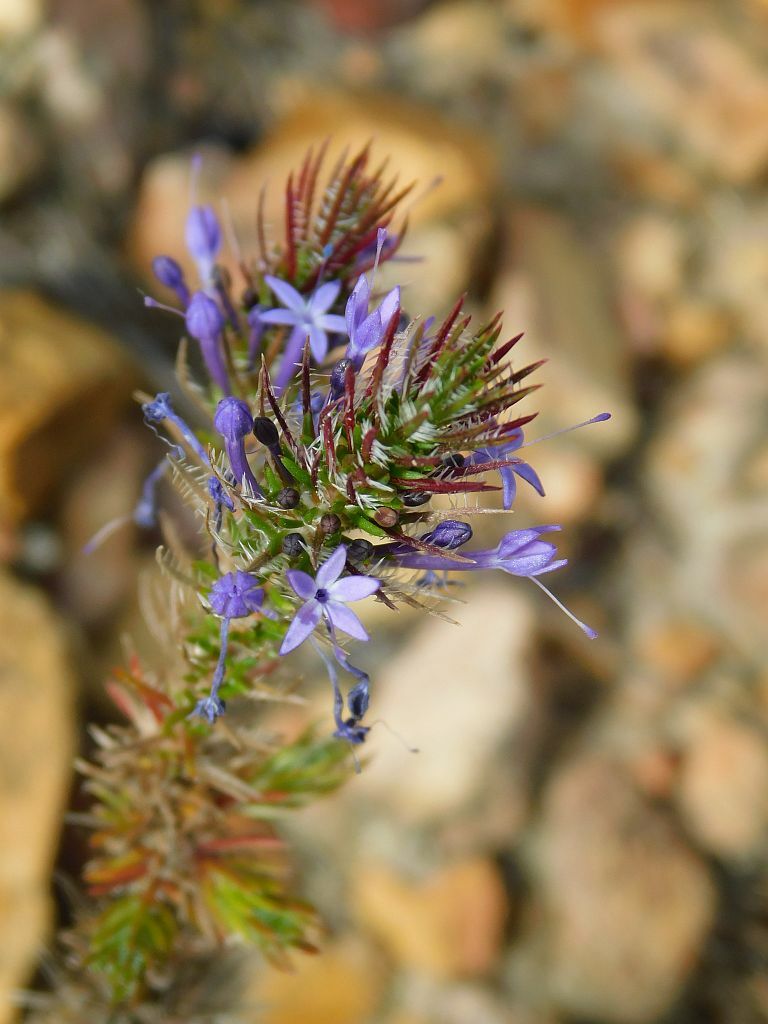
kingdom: Plantae
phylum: Tracheophyta
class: Magnoliopsida
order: Asterales
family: Campanulaceae
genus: Merciera
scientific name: Merciera eckloniana
